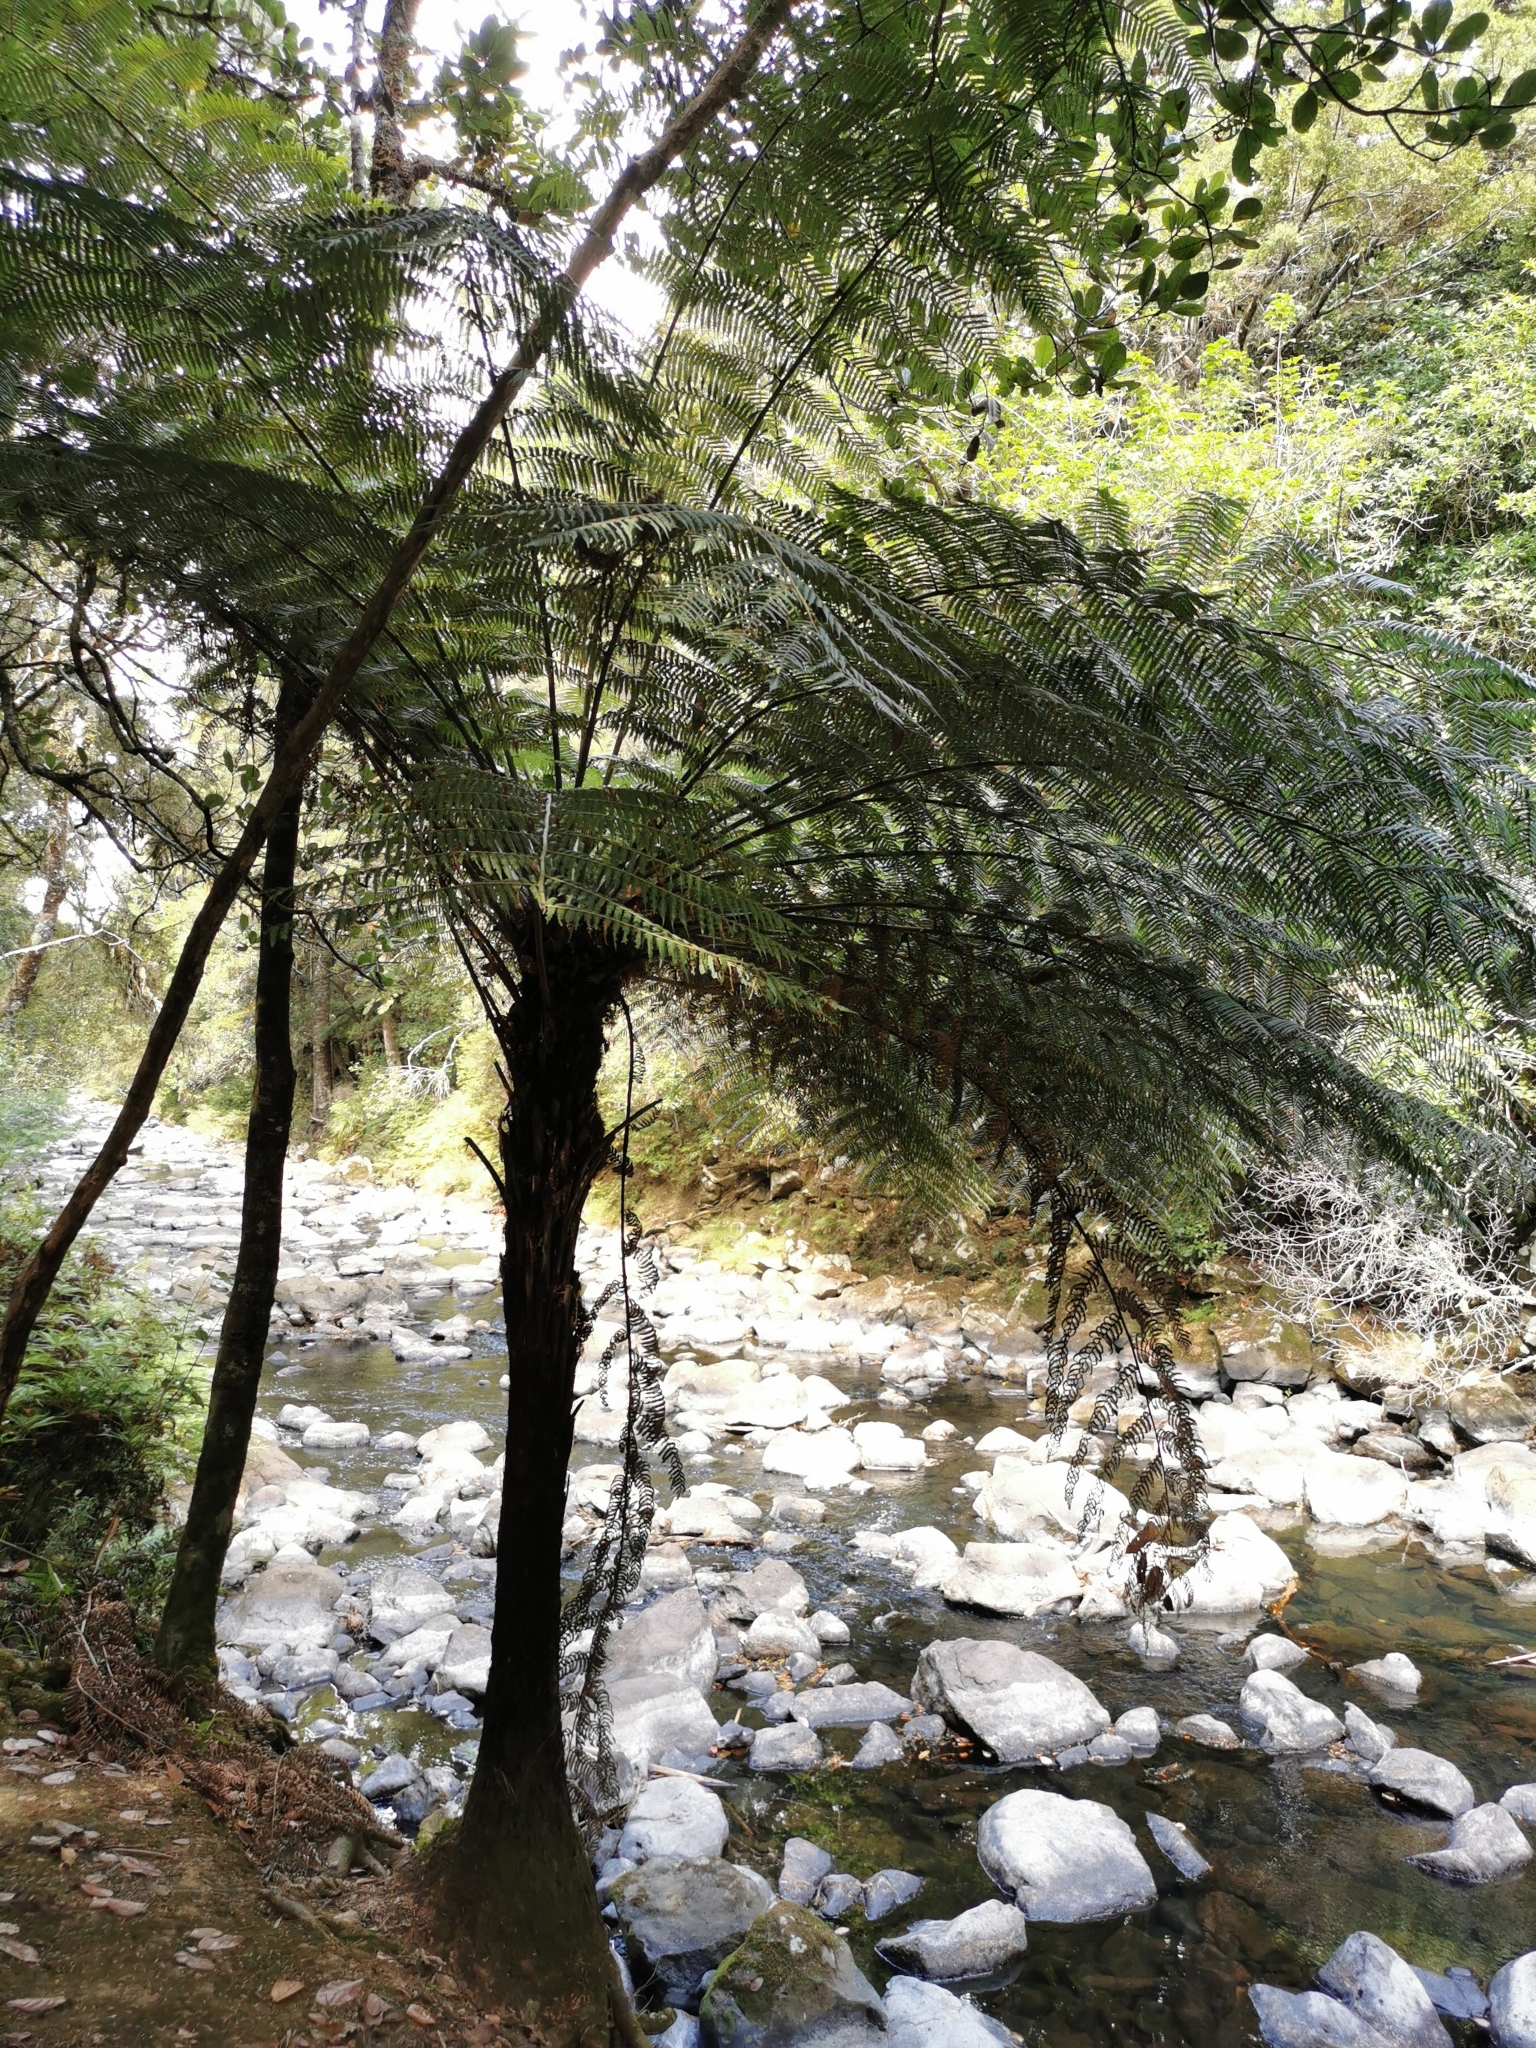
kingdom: Plantae
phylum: Tracheophyta
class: Polypodiopsida
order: Cyatheales
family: Cyatheaceae
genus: Alsophila
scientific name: Alsophila dealbata
